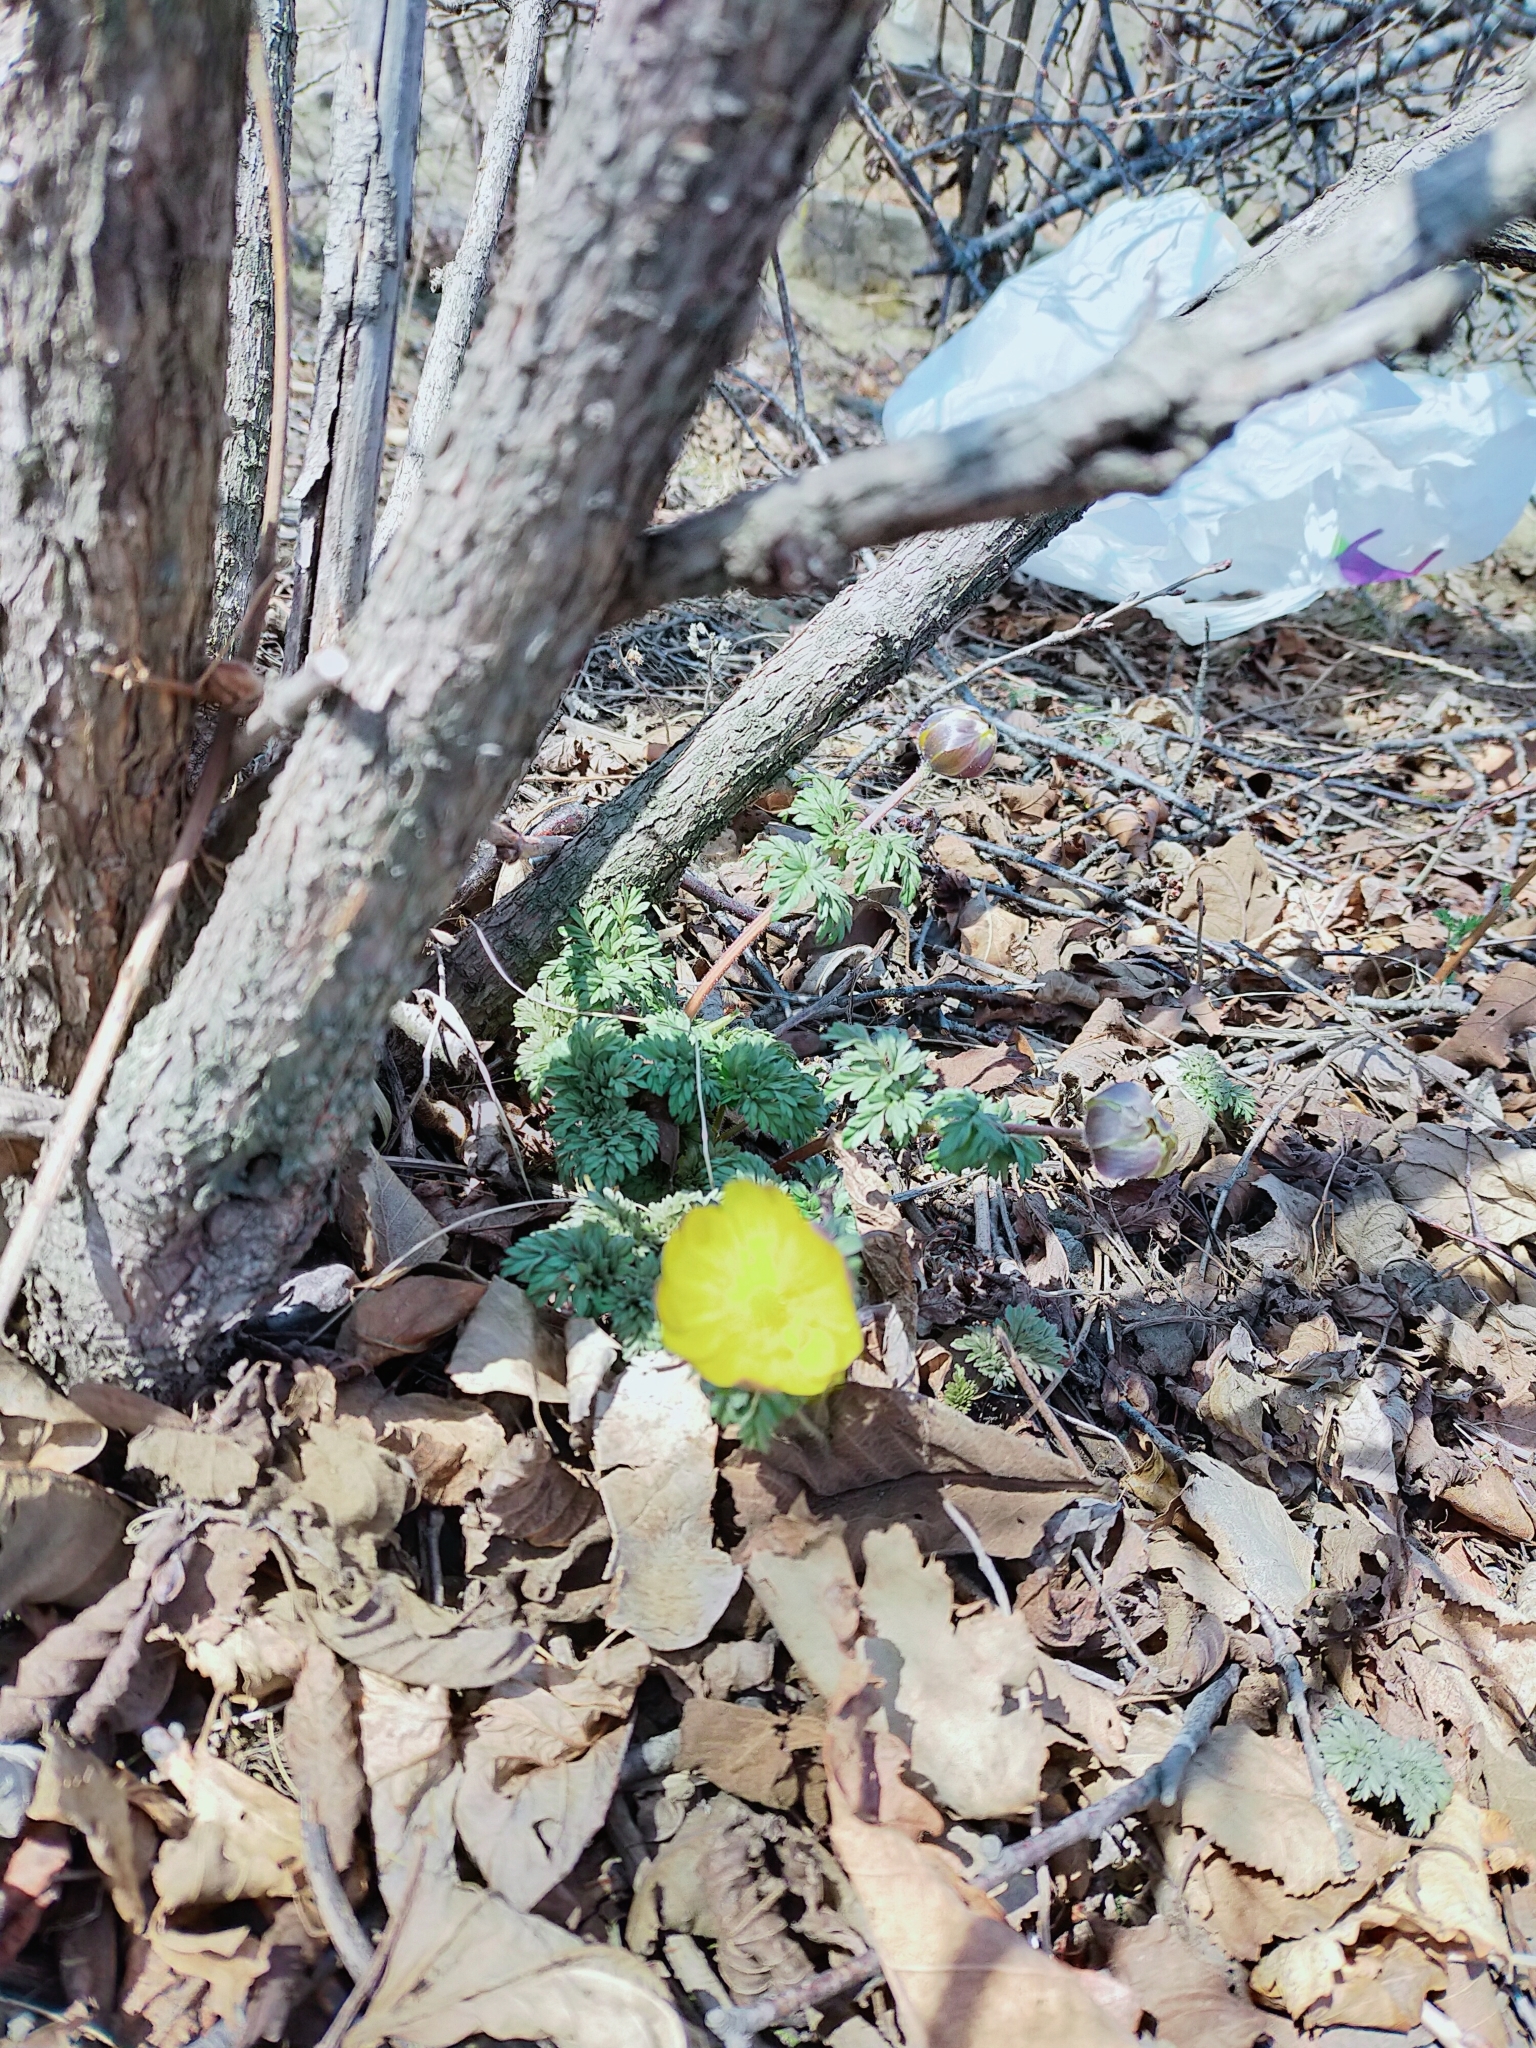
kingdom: Plantae
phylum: Tracheophyta
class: Magnoliopsida
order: Ranunculales
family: Ranunculaceae
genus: Adonis
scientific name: Adonis amurensis
